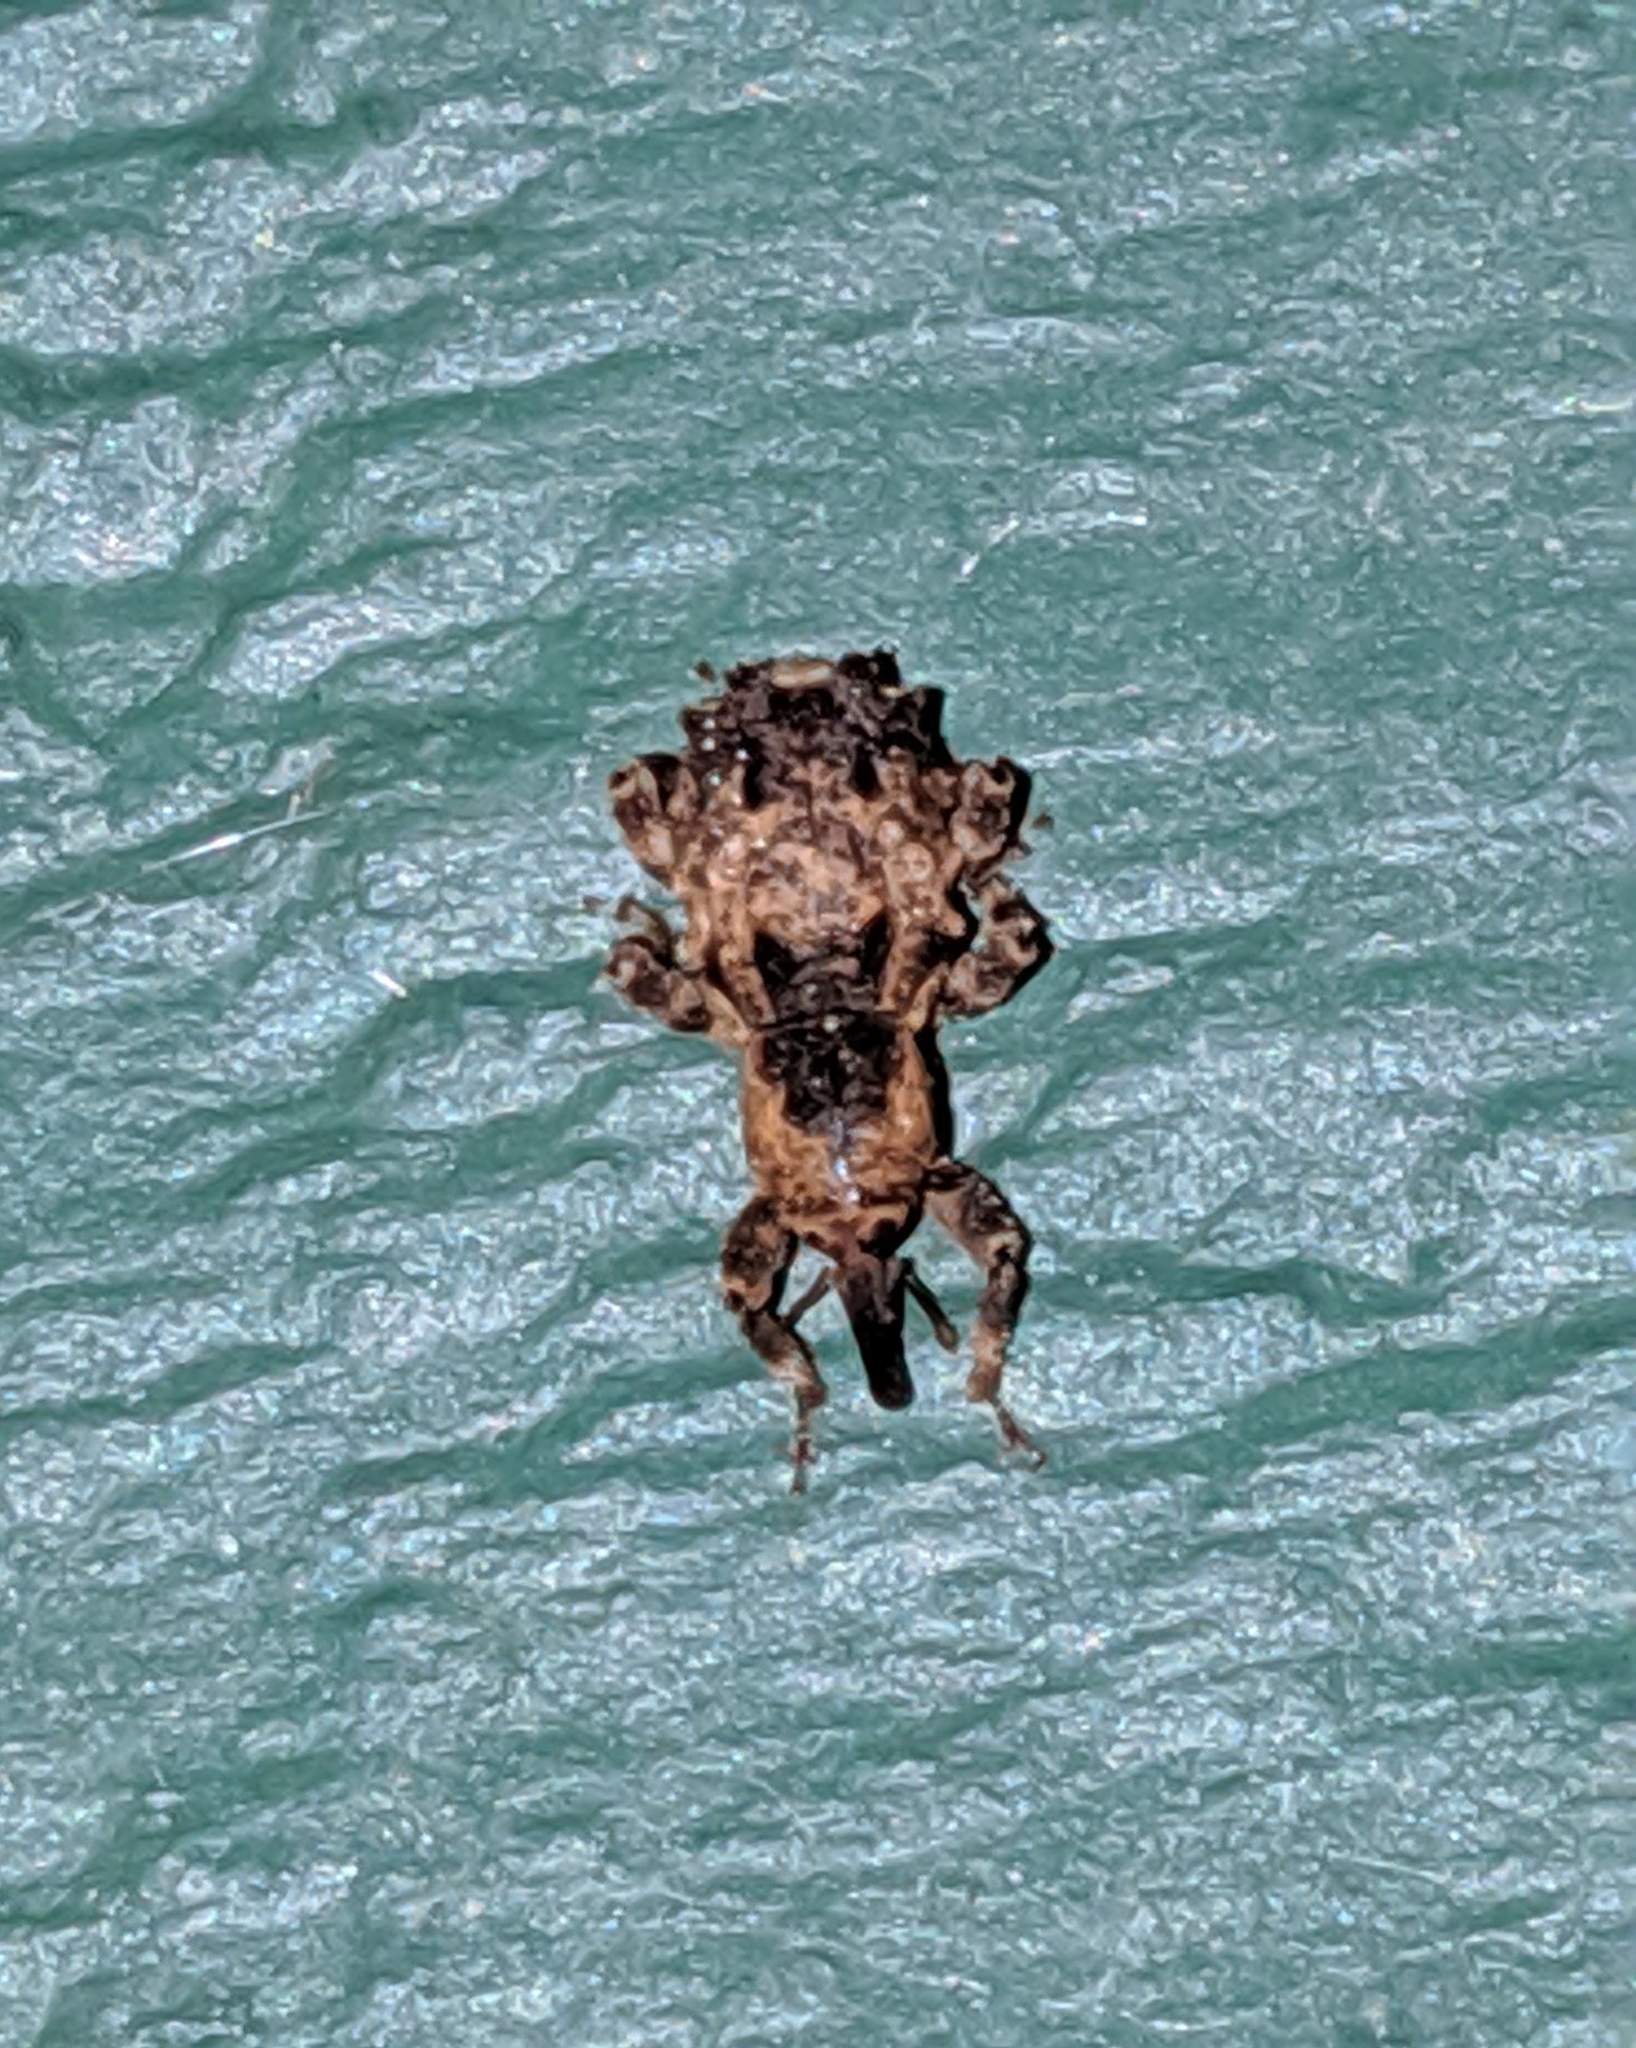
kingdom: Animalia
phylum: Arthropoda
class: Insecta
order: Coleoptera
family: Curculionidae
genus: Aparopion
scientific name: Aparopion horridus
